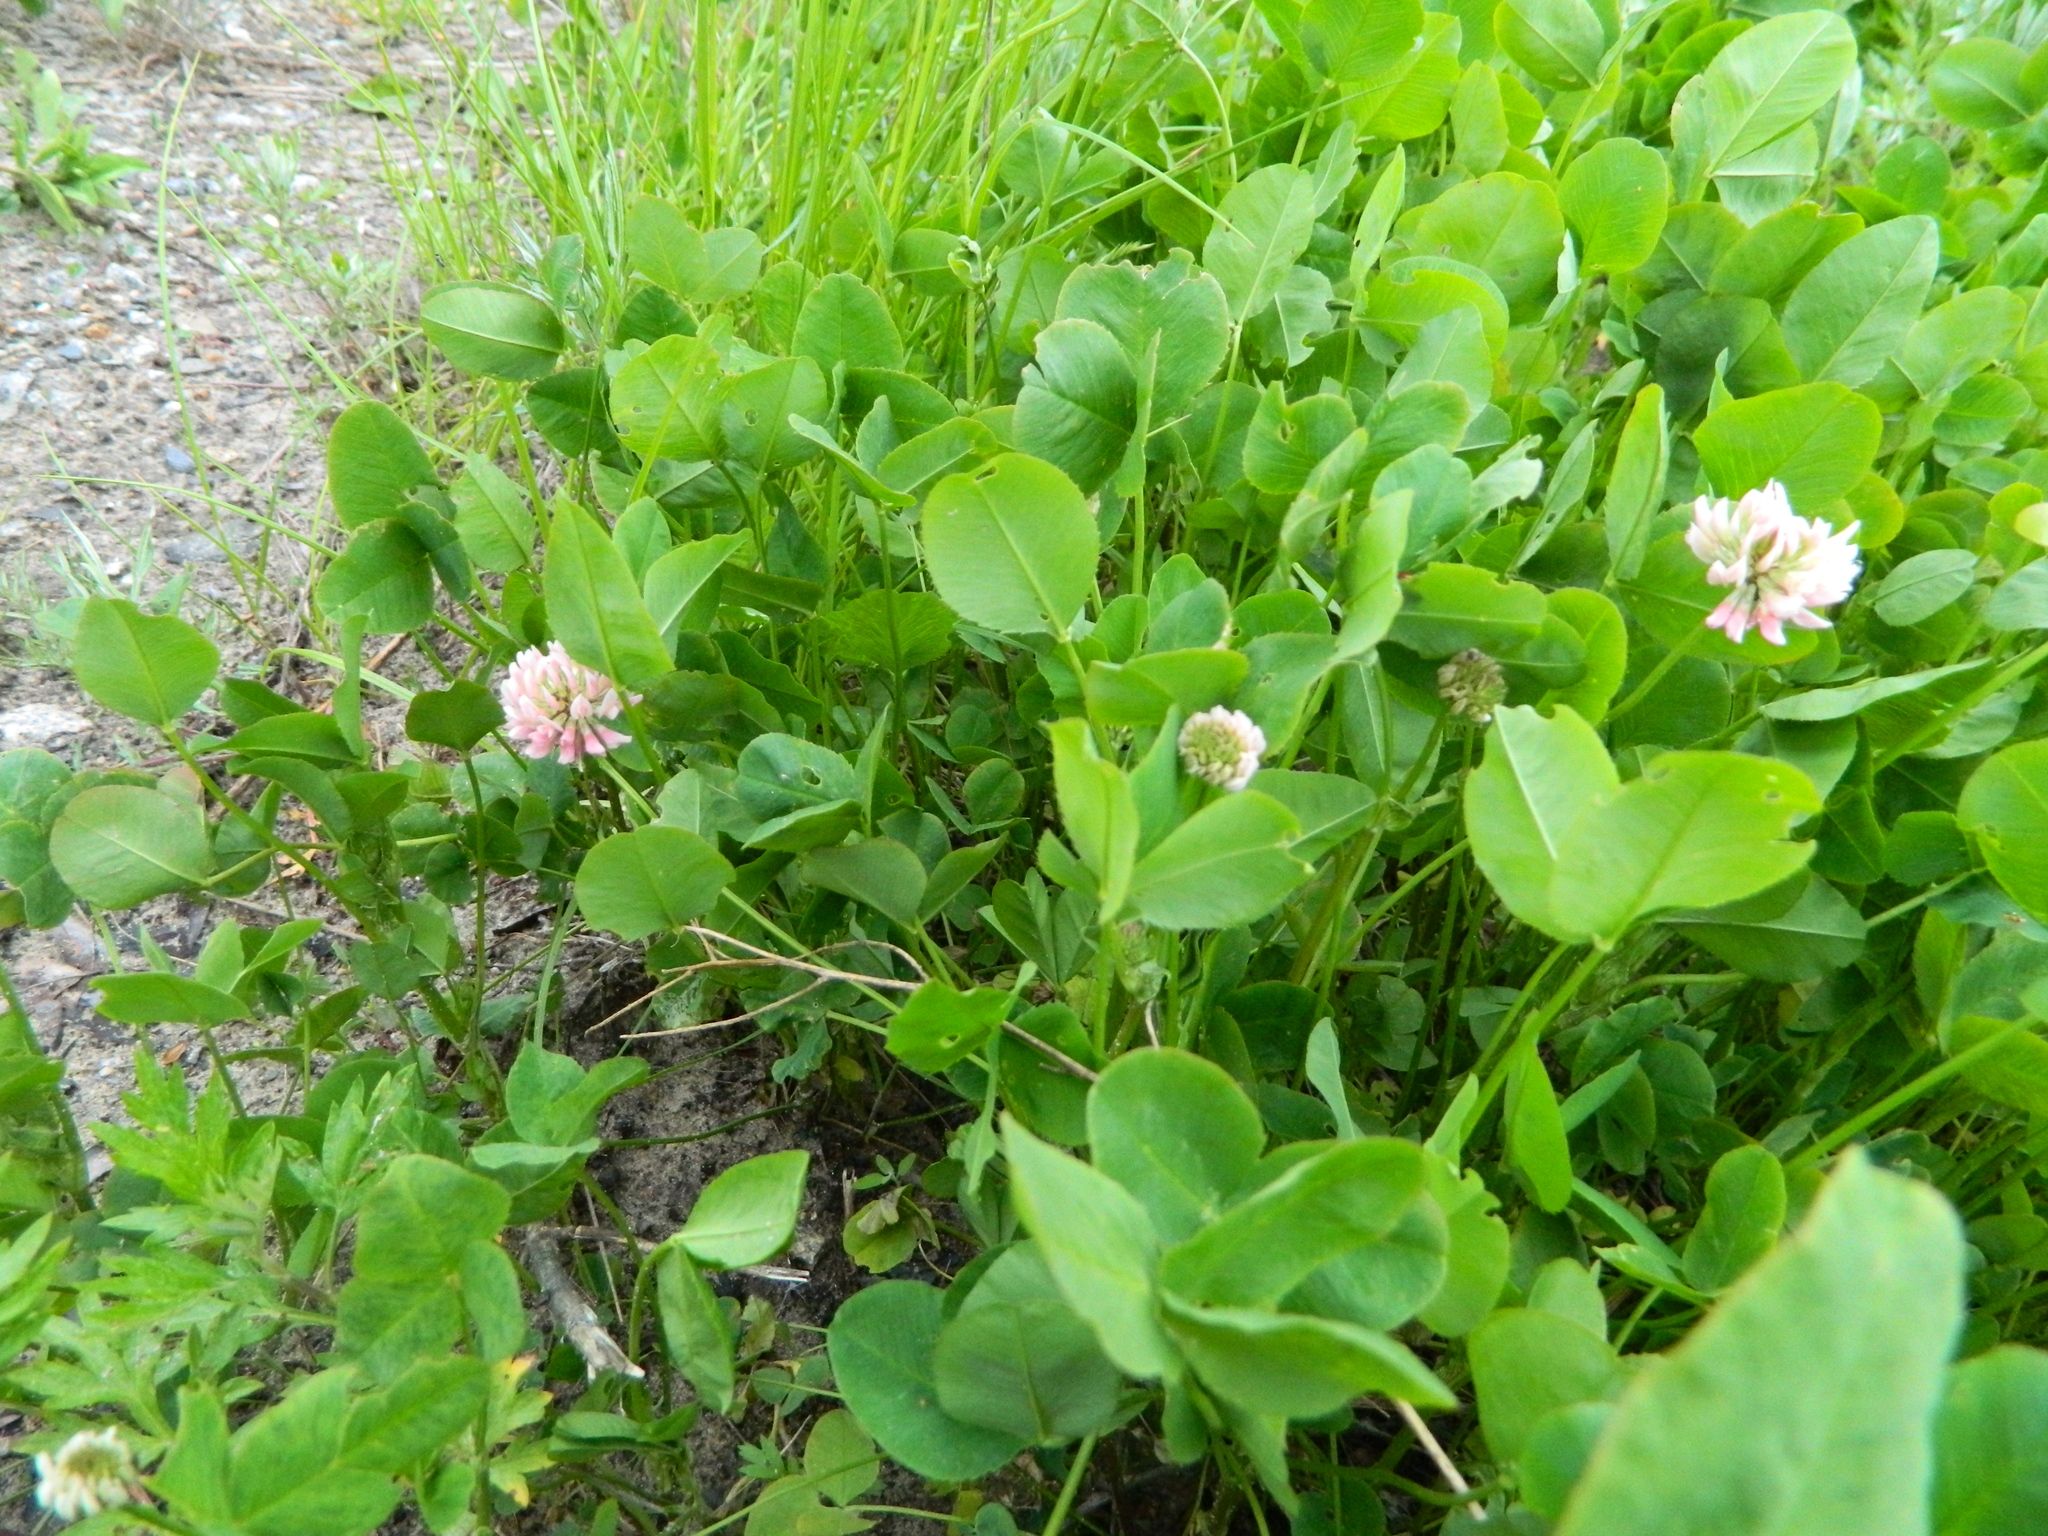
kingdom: Plantae
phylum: Tracheophyta
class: Magnoliopsida
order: Fabales
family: Fabaceae
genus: Trifolium
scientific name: Trifolium hybridum
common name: Alsike clover
